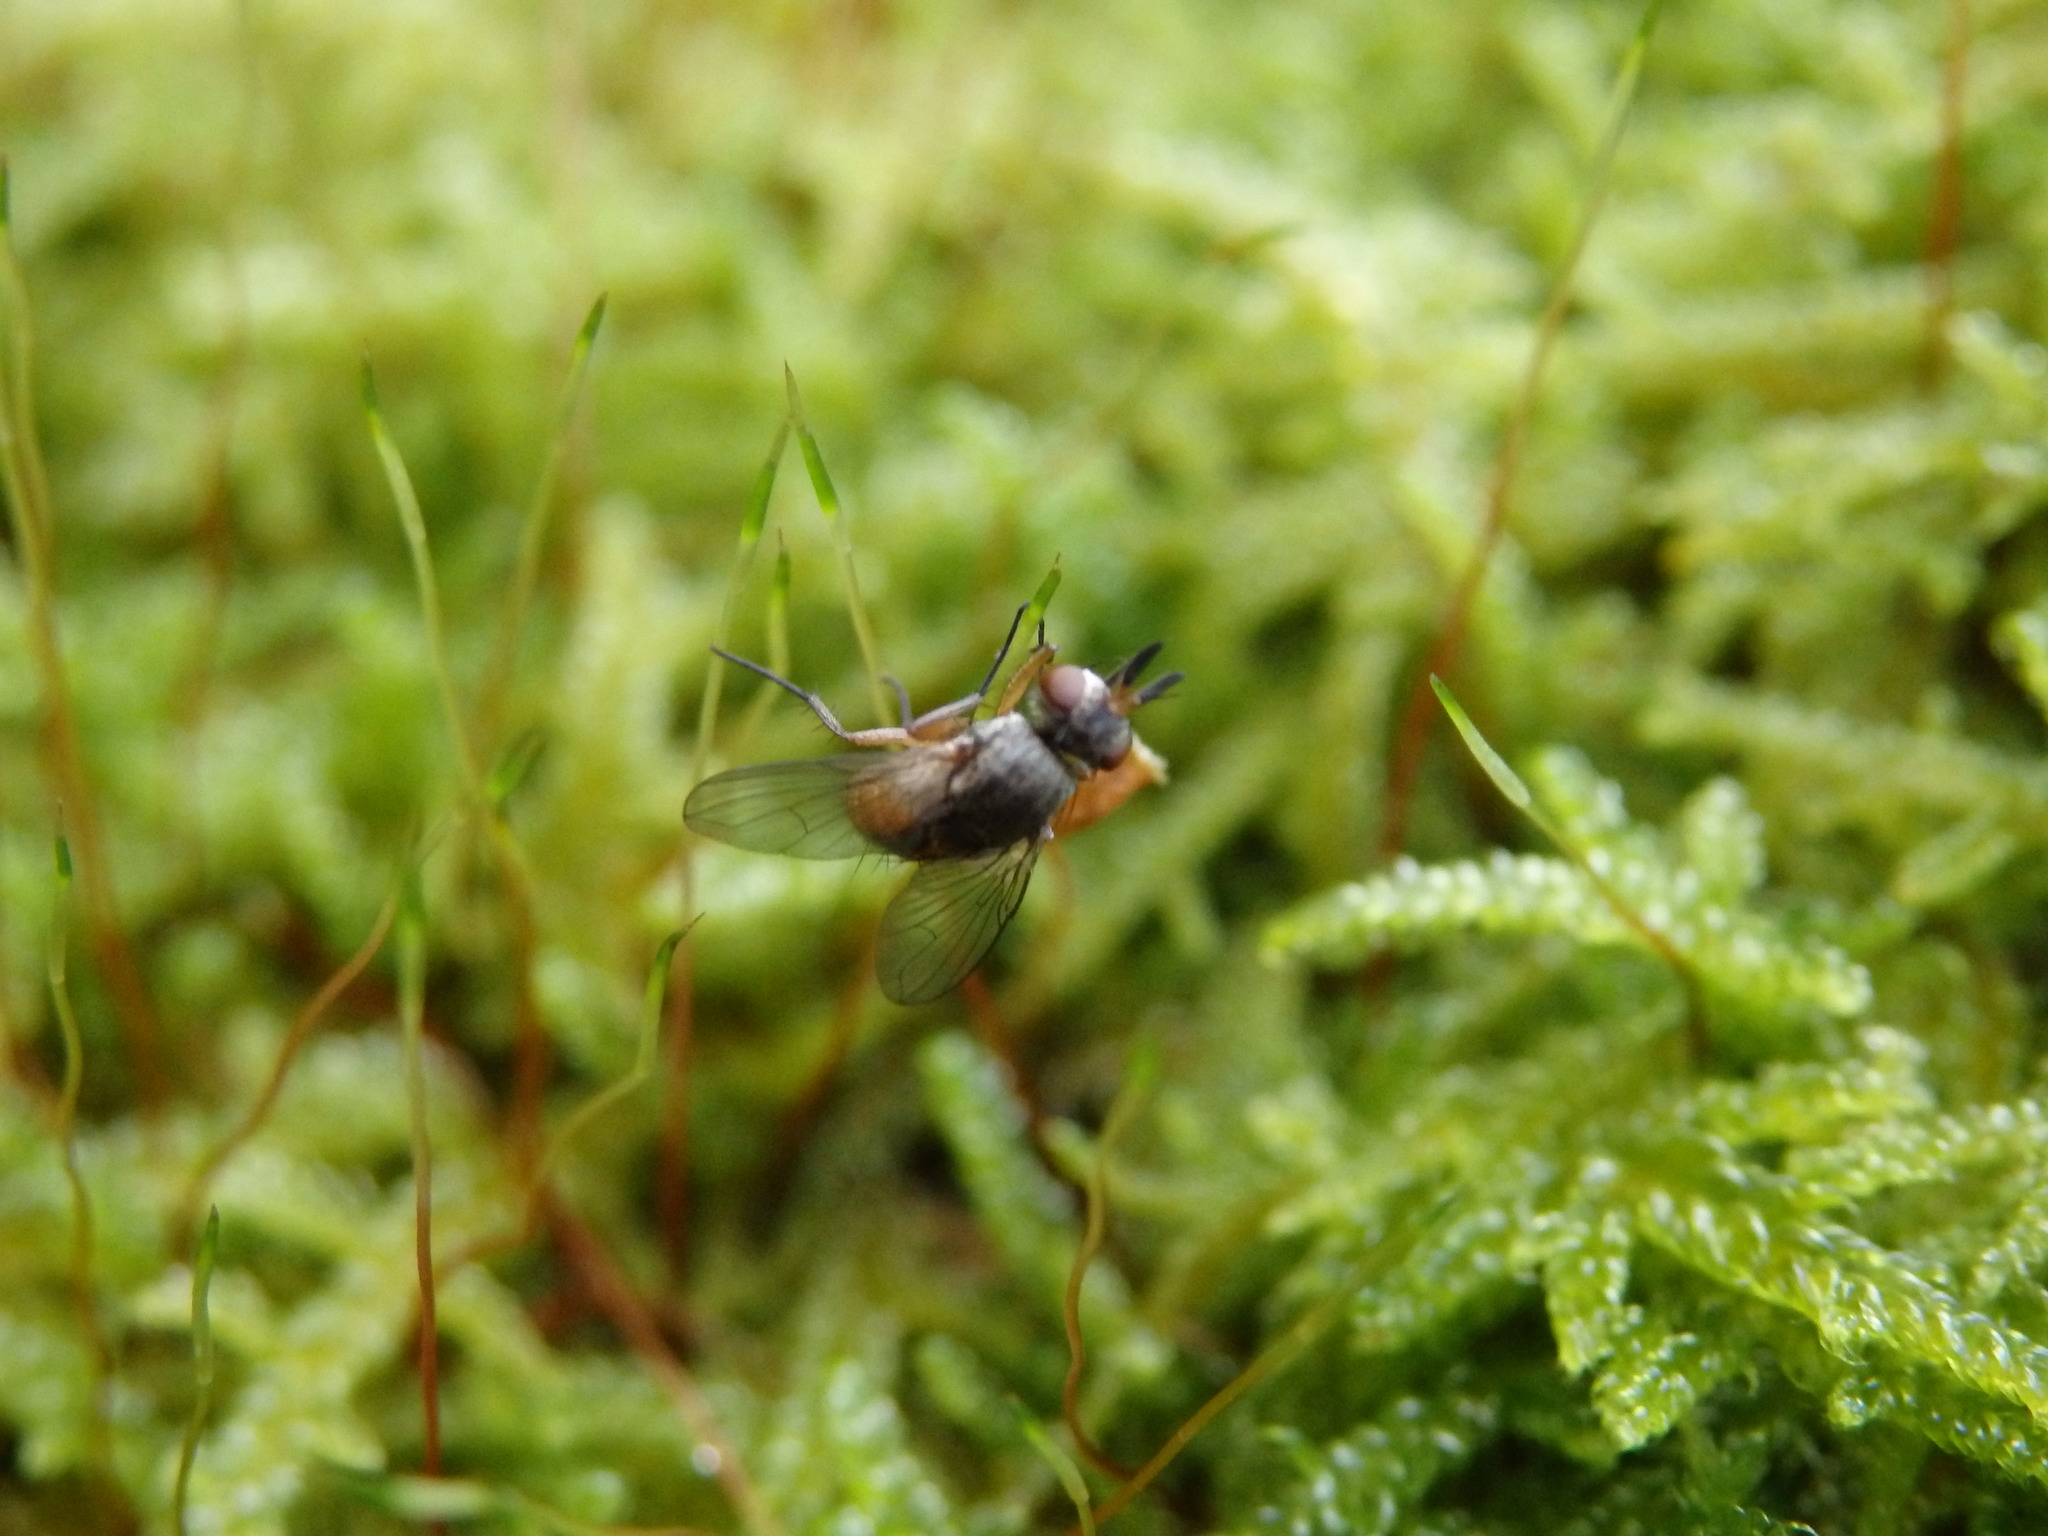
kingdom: Animalia
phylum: Arthropoda
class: Insecta
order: Diptera
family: Tachinidae
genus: Siphona
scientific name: Siphona
